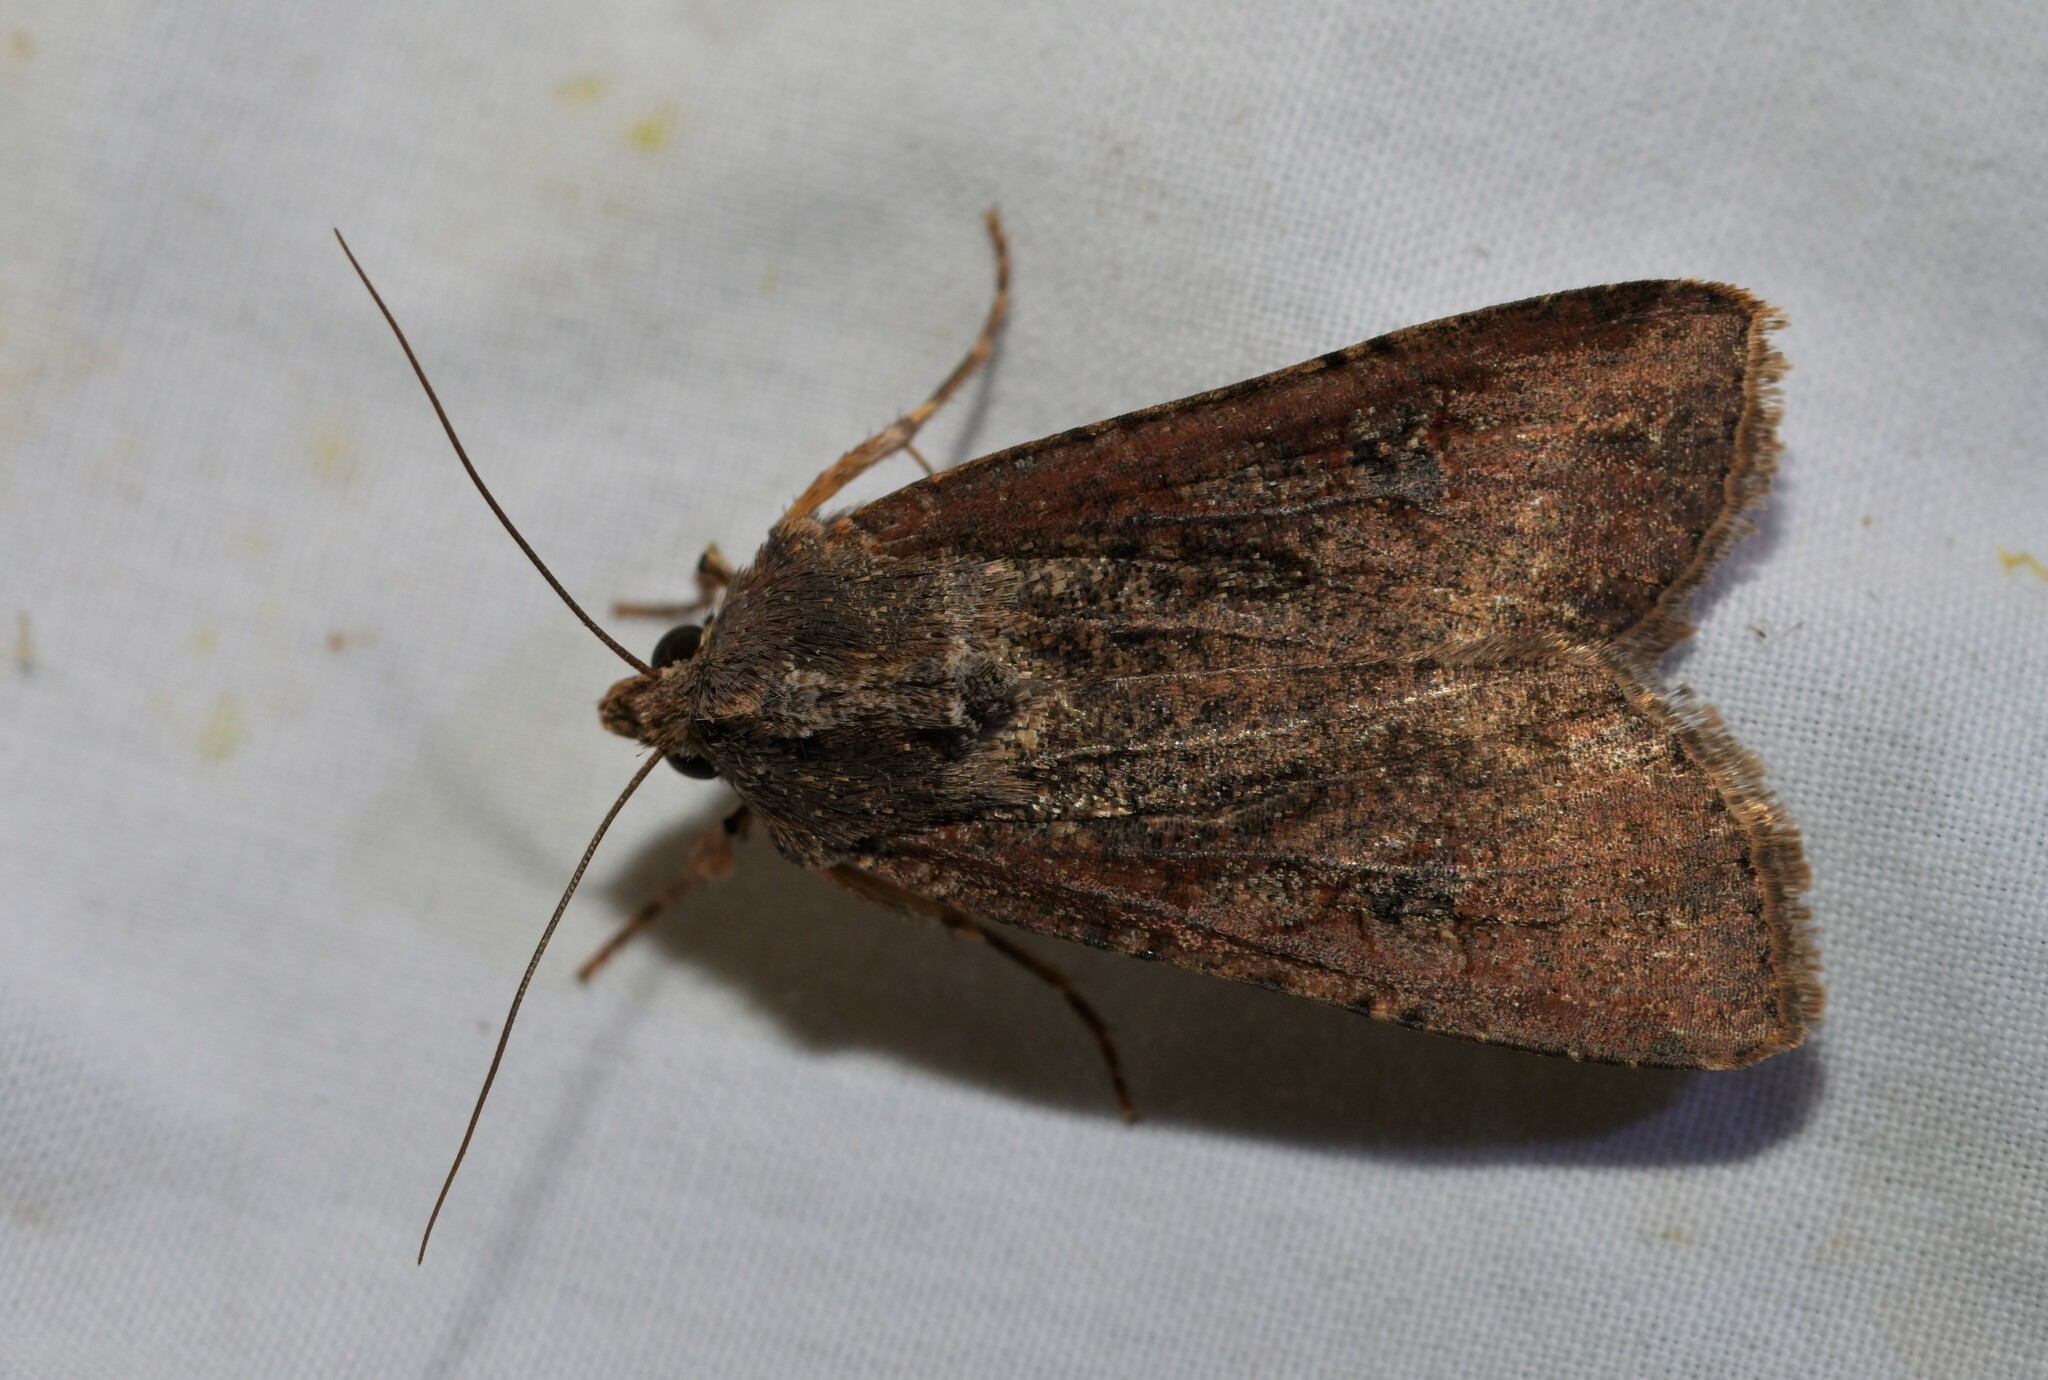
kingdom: Animalia
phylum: Arthropoda
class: Insecta
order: Lepidoptera
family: Noctuidae
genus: Peridroma
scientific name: Peridroma saucia
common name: Pearly underwing
